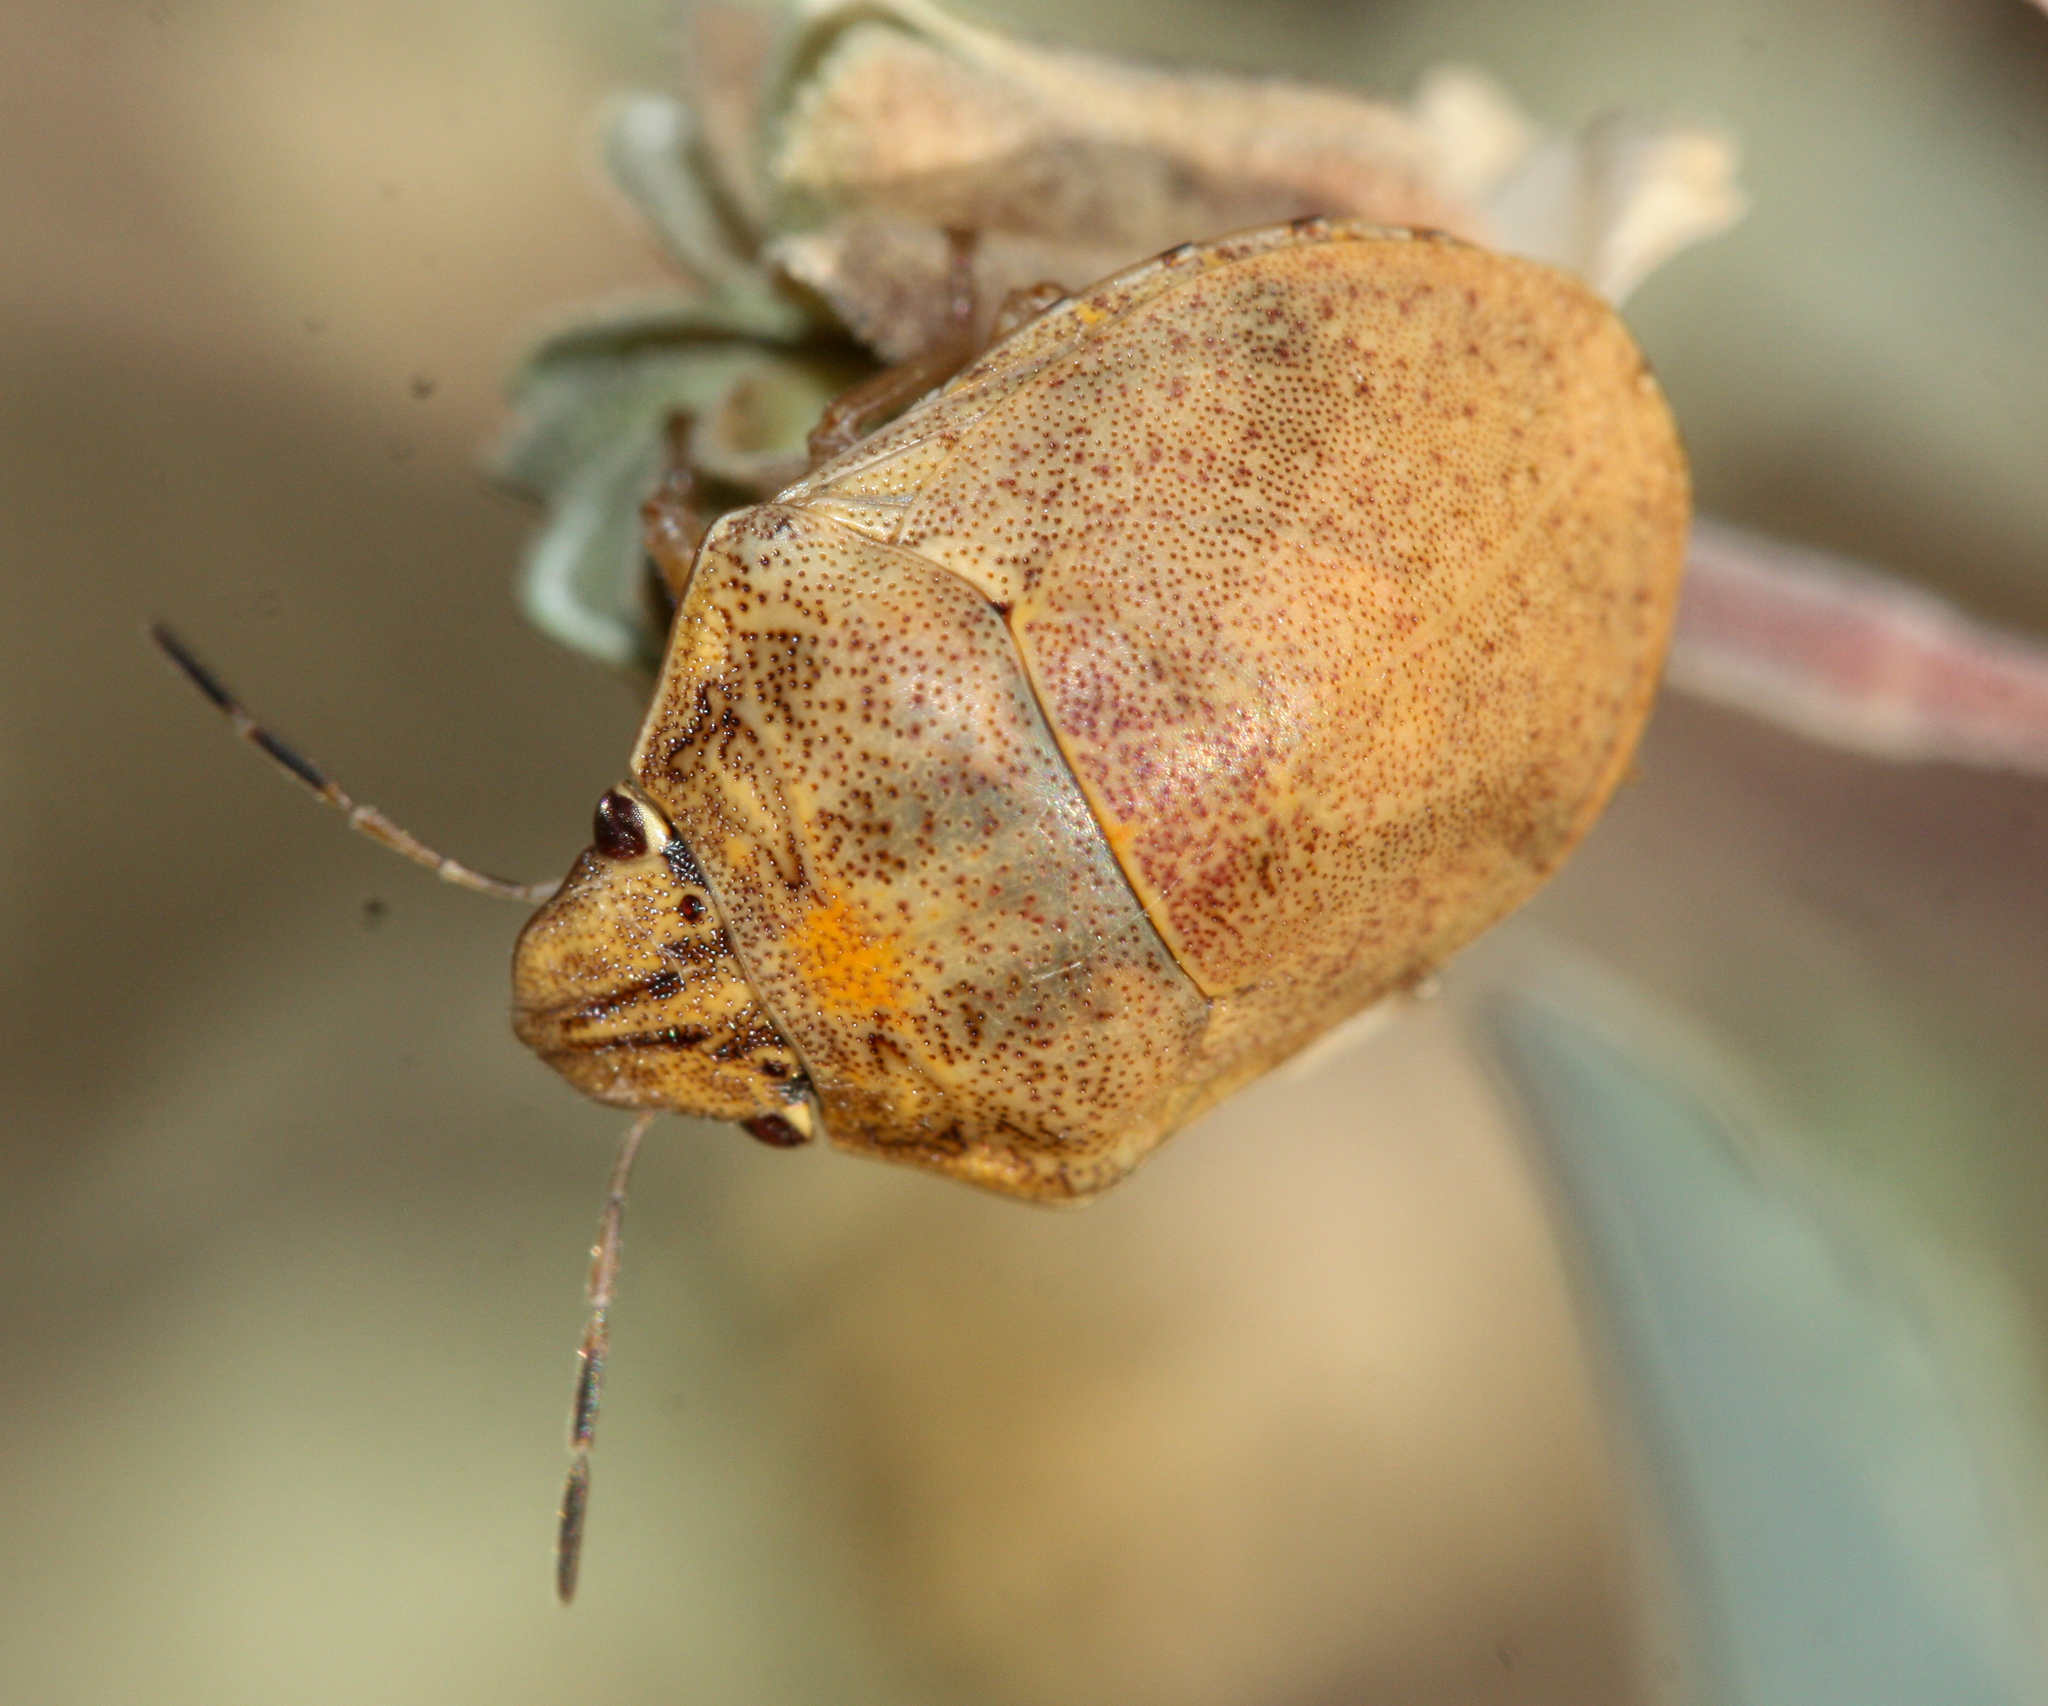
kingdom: Animalia
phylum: Arthropoda
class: Insecta
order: Hemiptera
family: Scutelleridae
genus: Sphyrocoris
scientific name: Sphyrocoris obliquus
